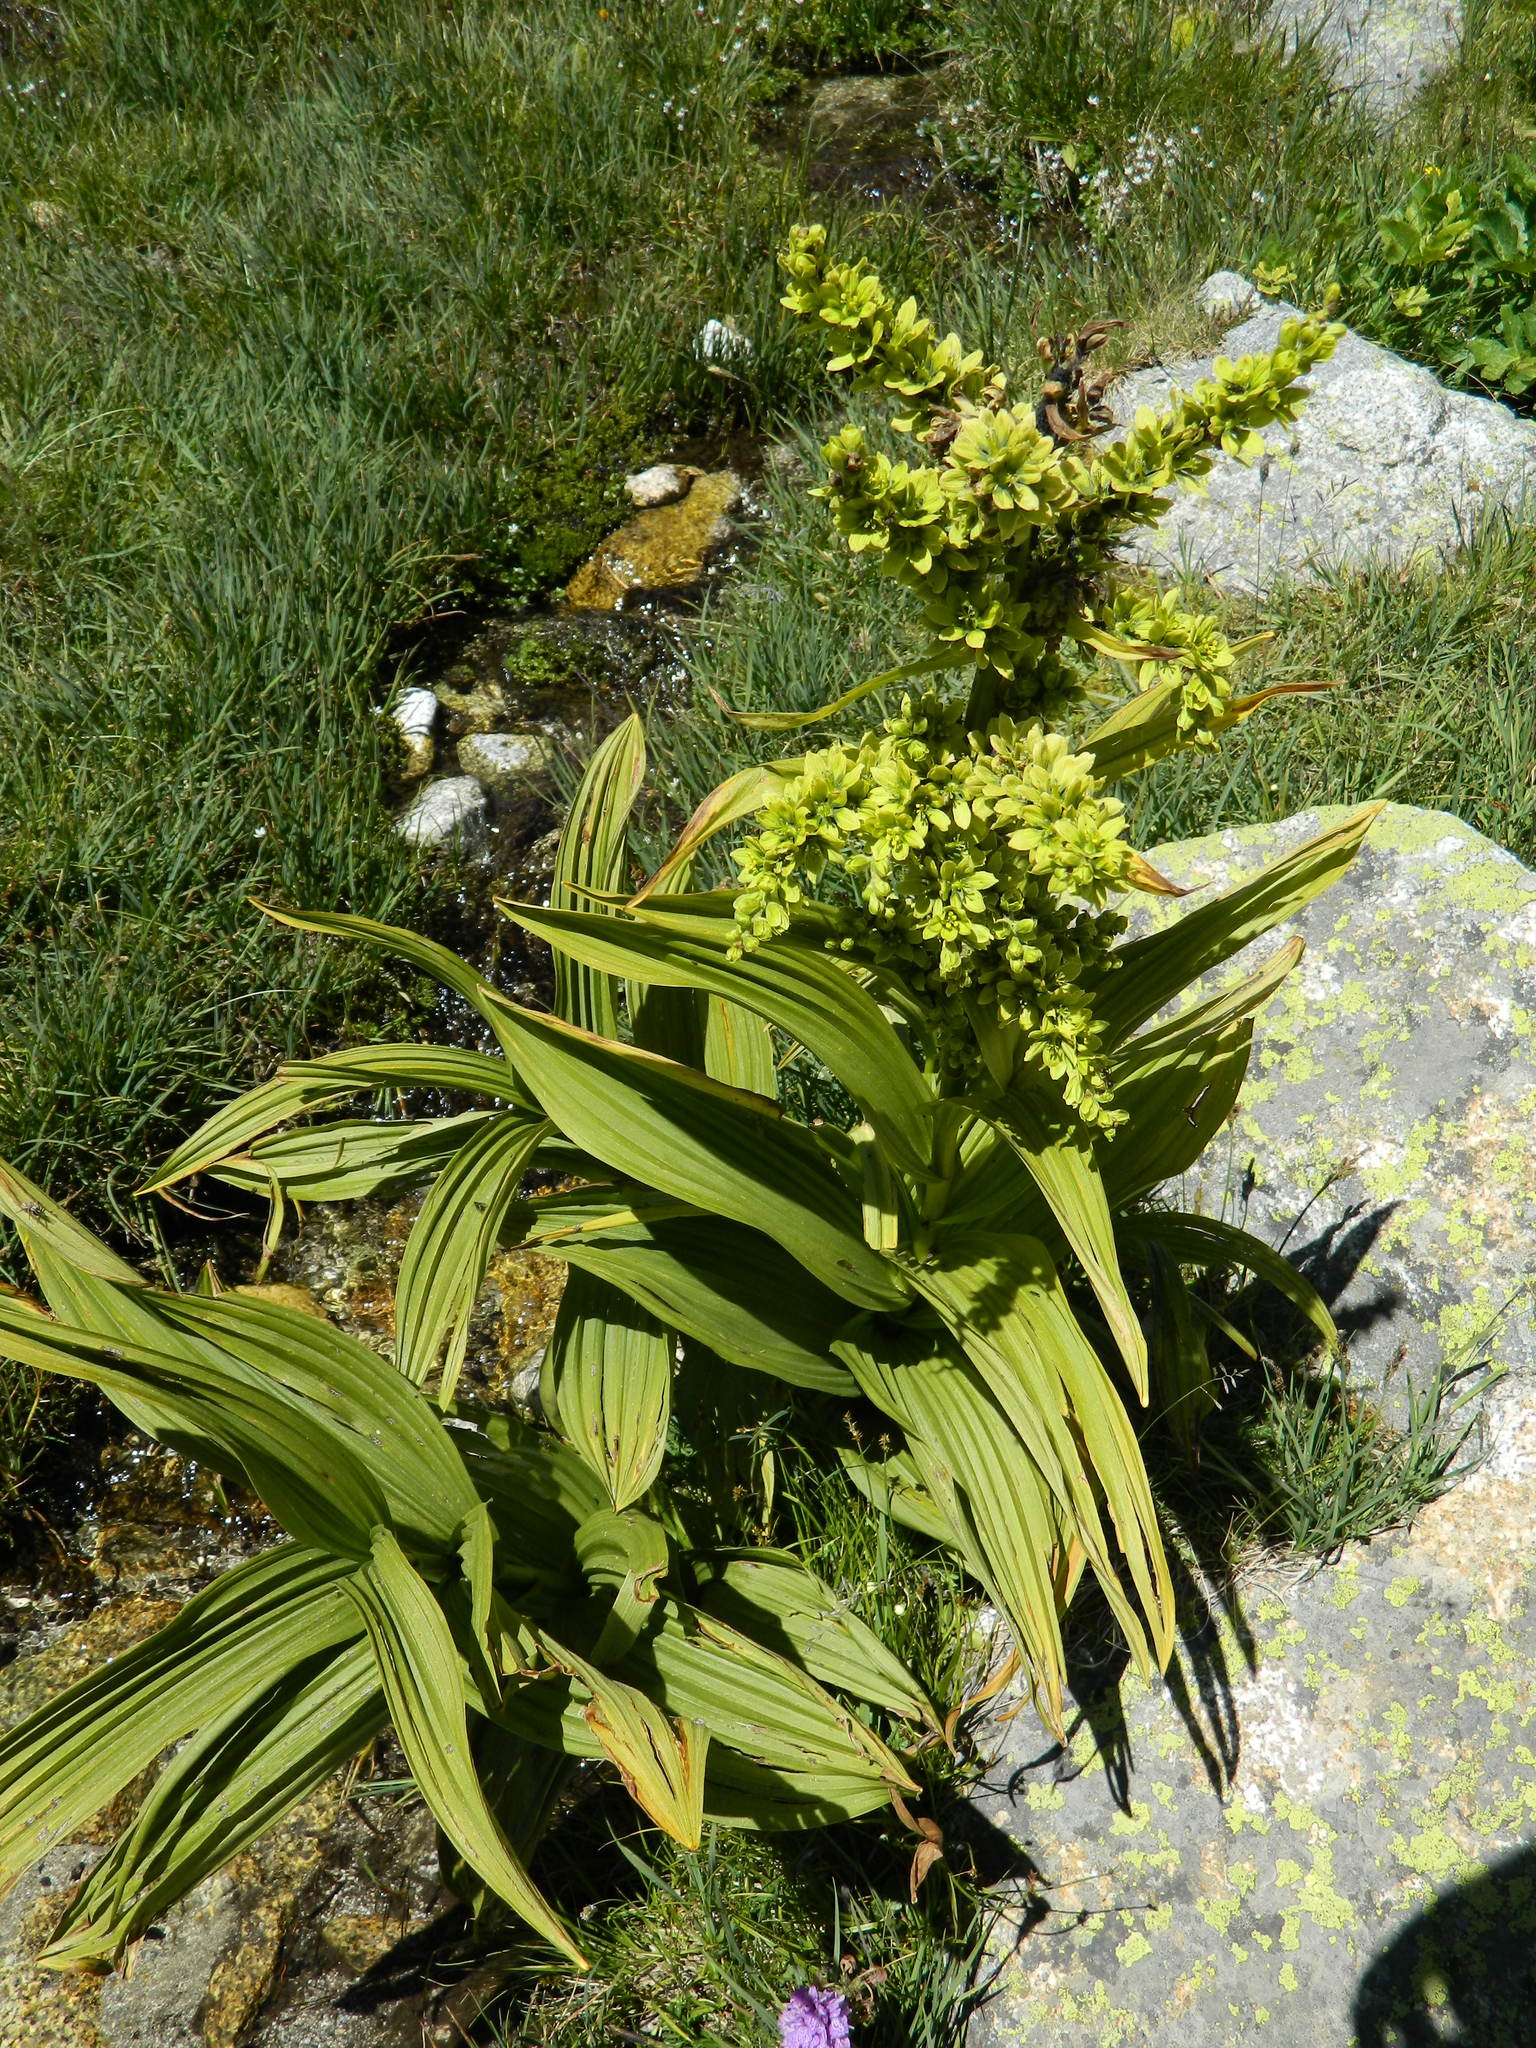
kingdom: Plantae
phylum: Tracheophyta
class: Liliopsida
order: Liliales
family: Melanthiaceae
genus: Veratrum
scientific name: Veratrum album
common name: White veratrum
